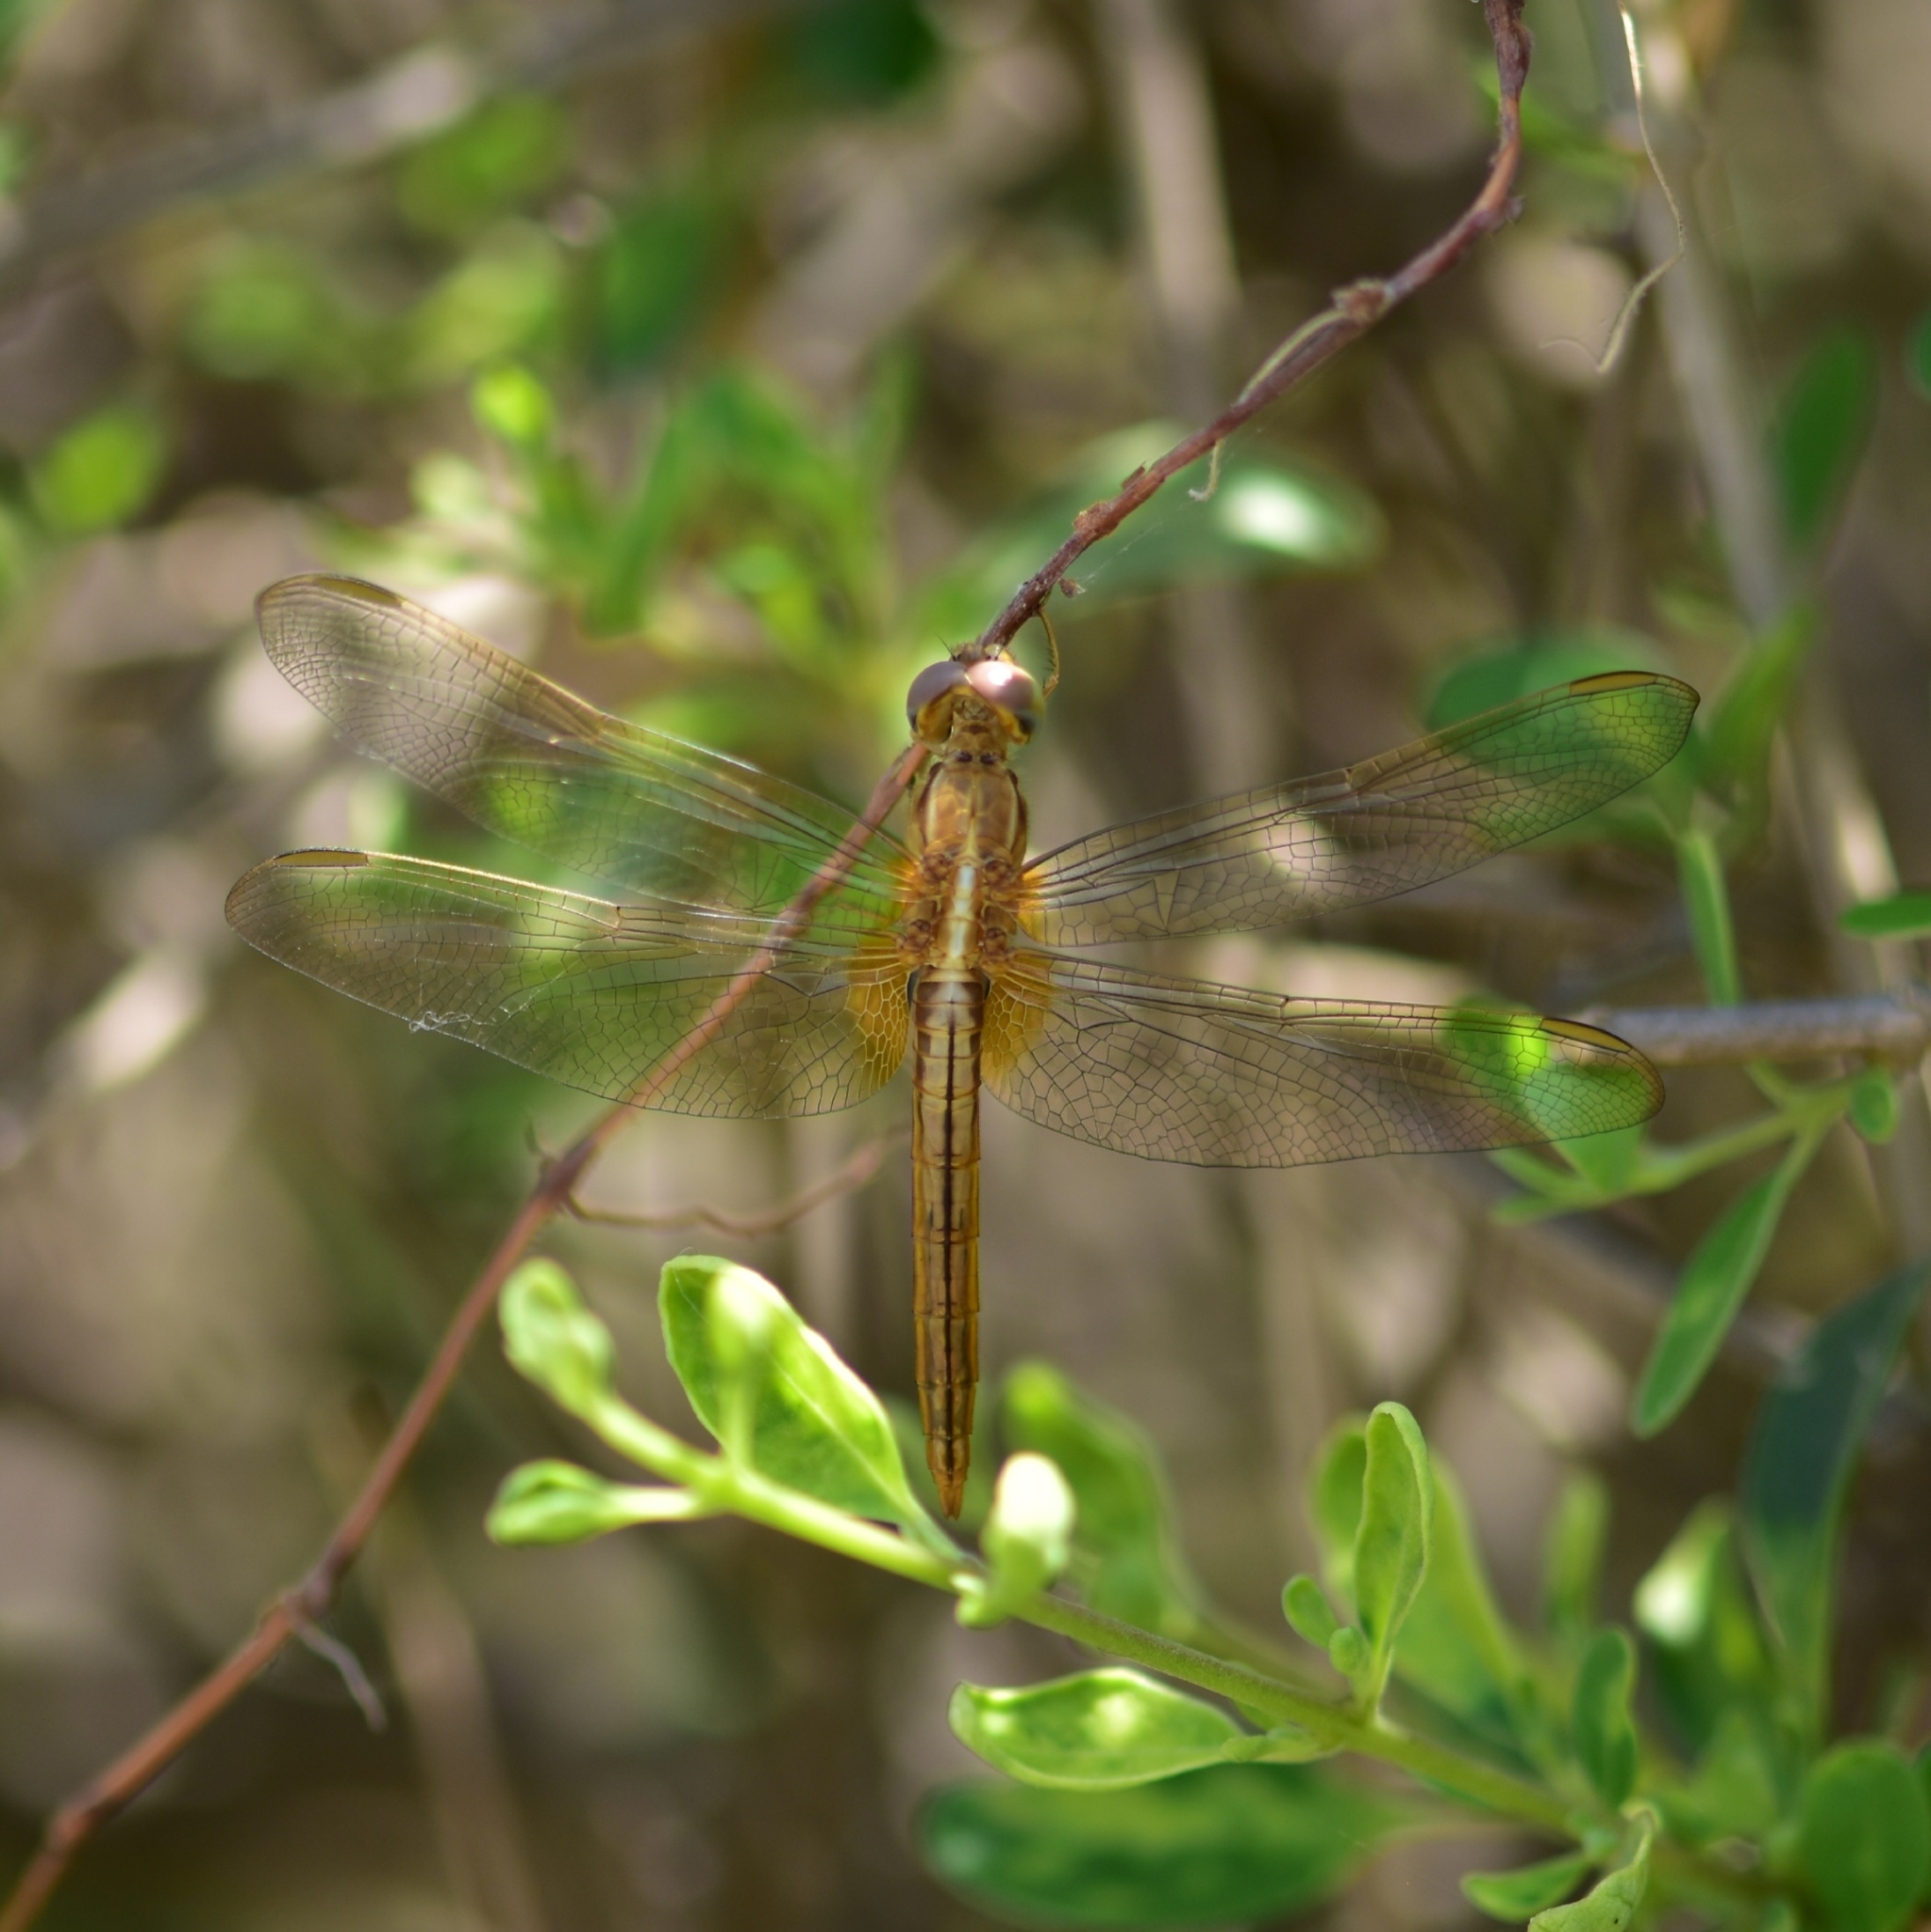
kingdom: Animalia
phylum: Arthropoda
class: Insecta
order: Odonata
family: Libellulidae
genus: Crocothemis
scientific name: Crocothemis servilia
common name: Scarlet skimmer
